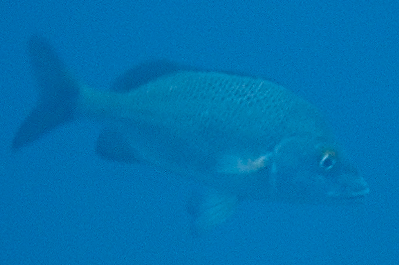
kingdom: Animalia
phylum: Chordata
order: Perciformes
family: Haemulidae
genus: Haemulon
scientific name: Haemulon scudderii
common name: Grey grunt
